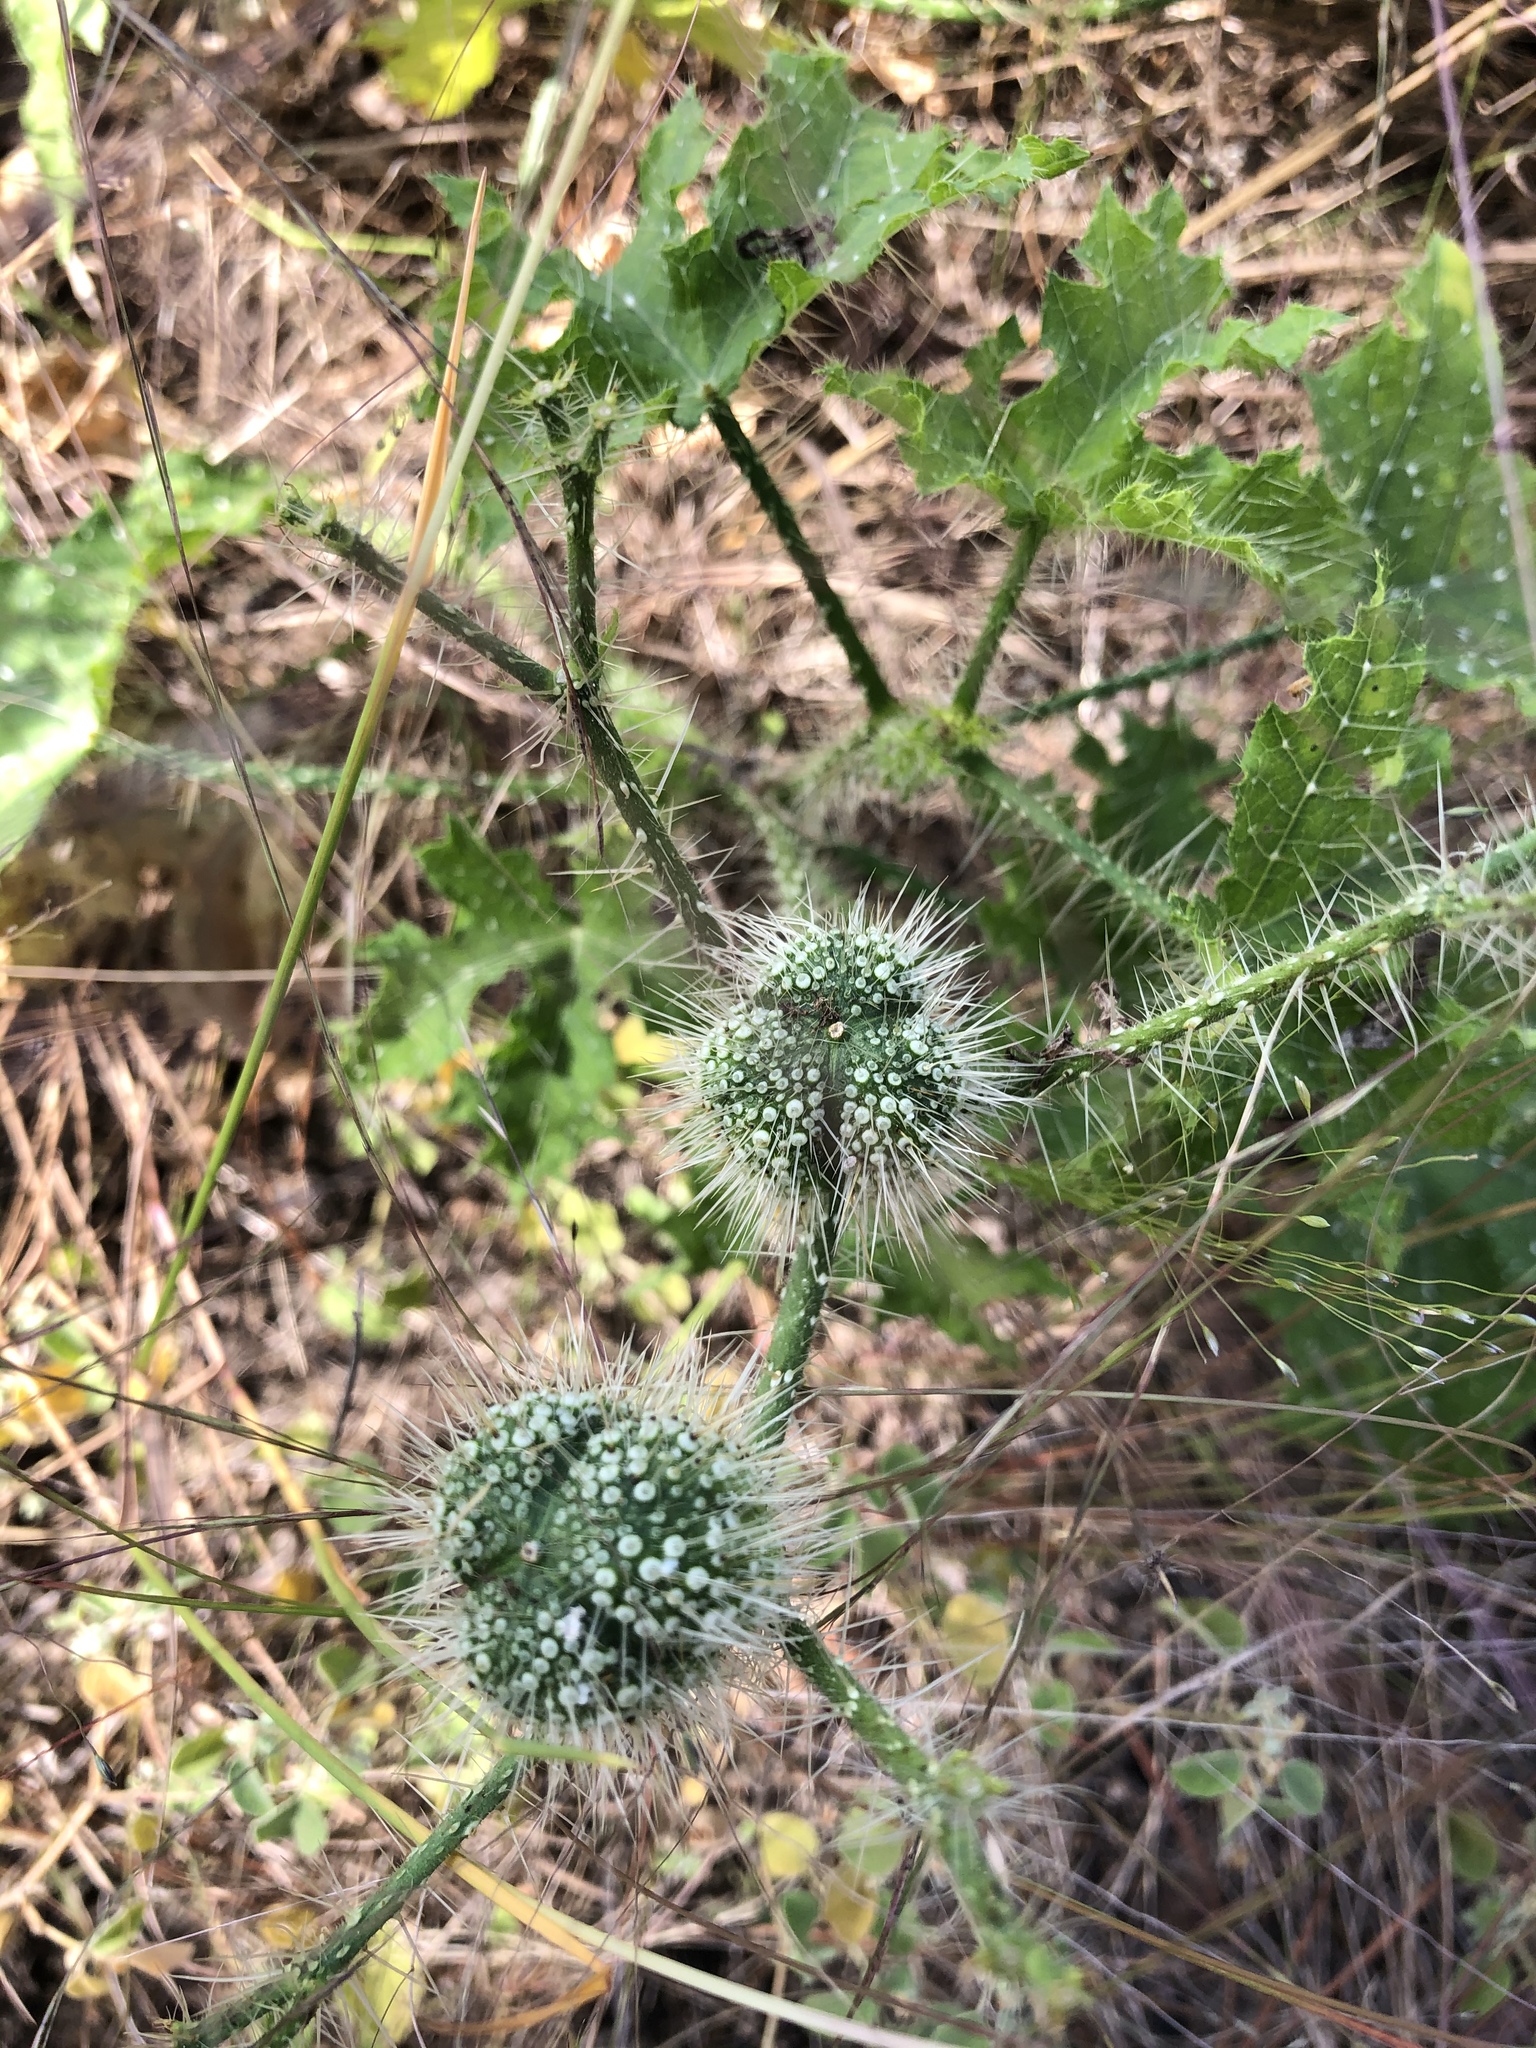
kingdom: Plantae
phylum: Tracheophyta
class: Magnoliopsida
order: Malpighiales
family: Euphorbiaceae
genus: Cnidoscolus
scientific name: Cnidoscolus texanus
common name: Texas bull-nettle
